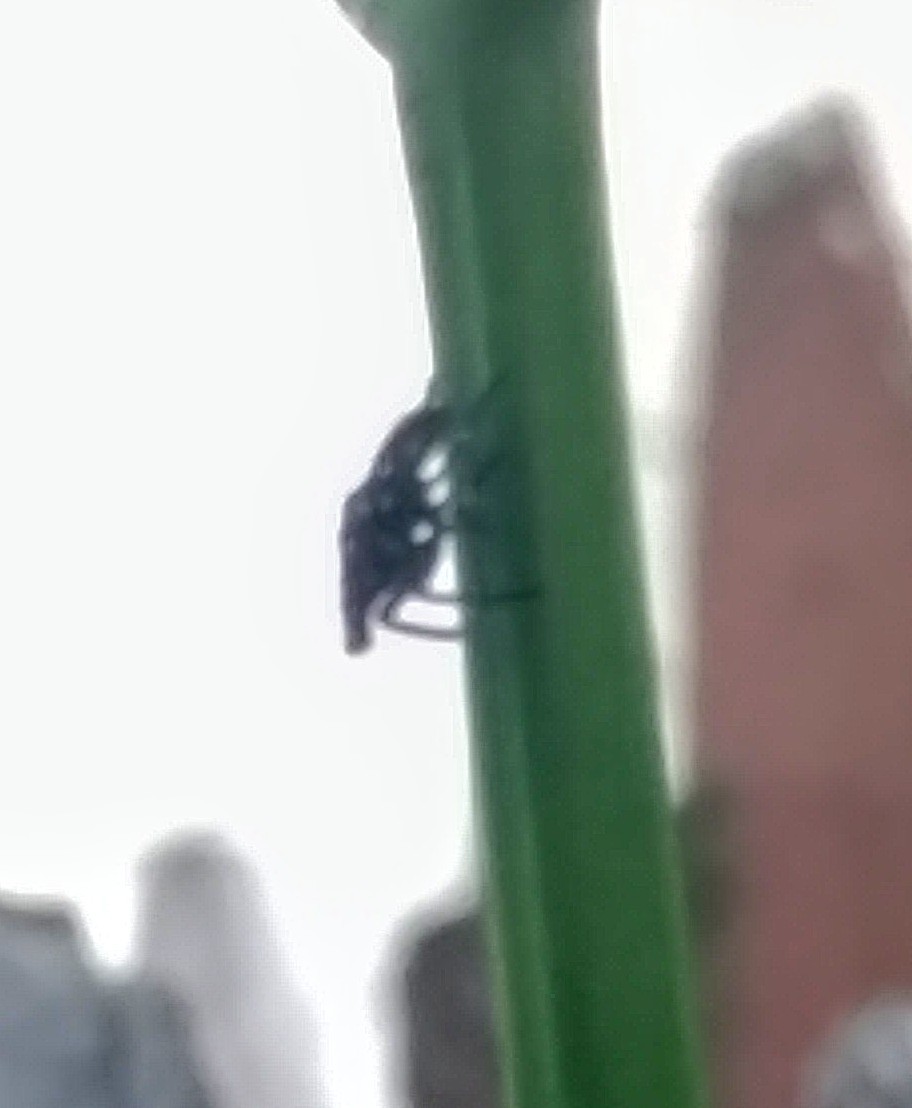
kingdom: Animalia
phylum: Arthropoda
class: Insecta
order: Hemiptera
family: Fulgoridae
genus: Lycorma
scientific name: Lycorma delicatula
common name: Spotted lanternfly
